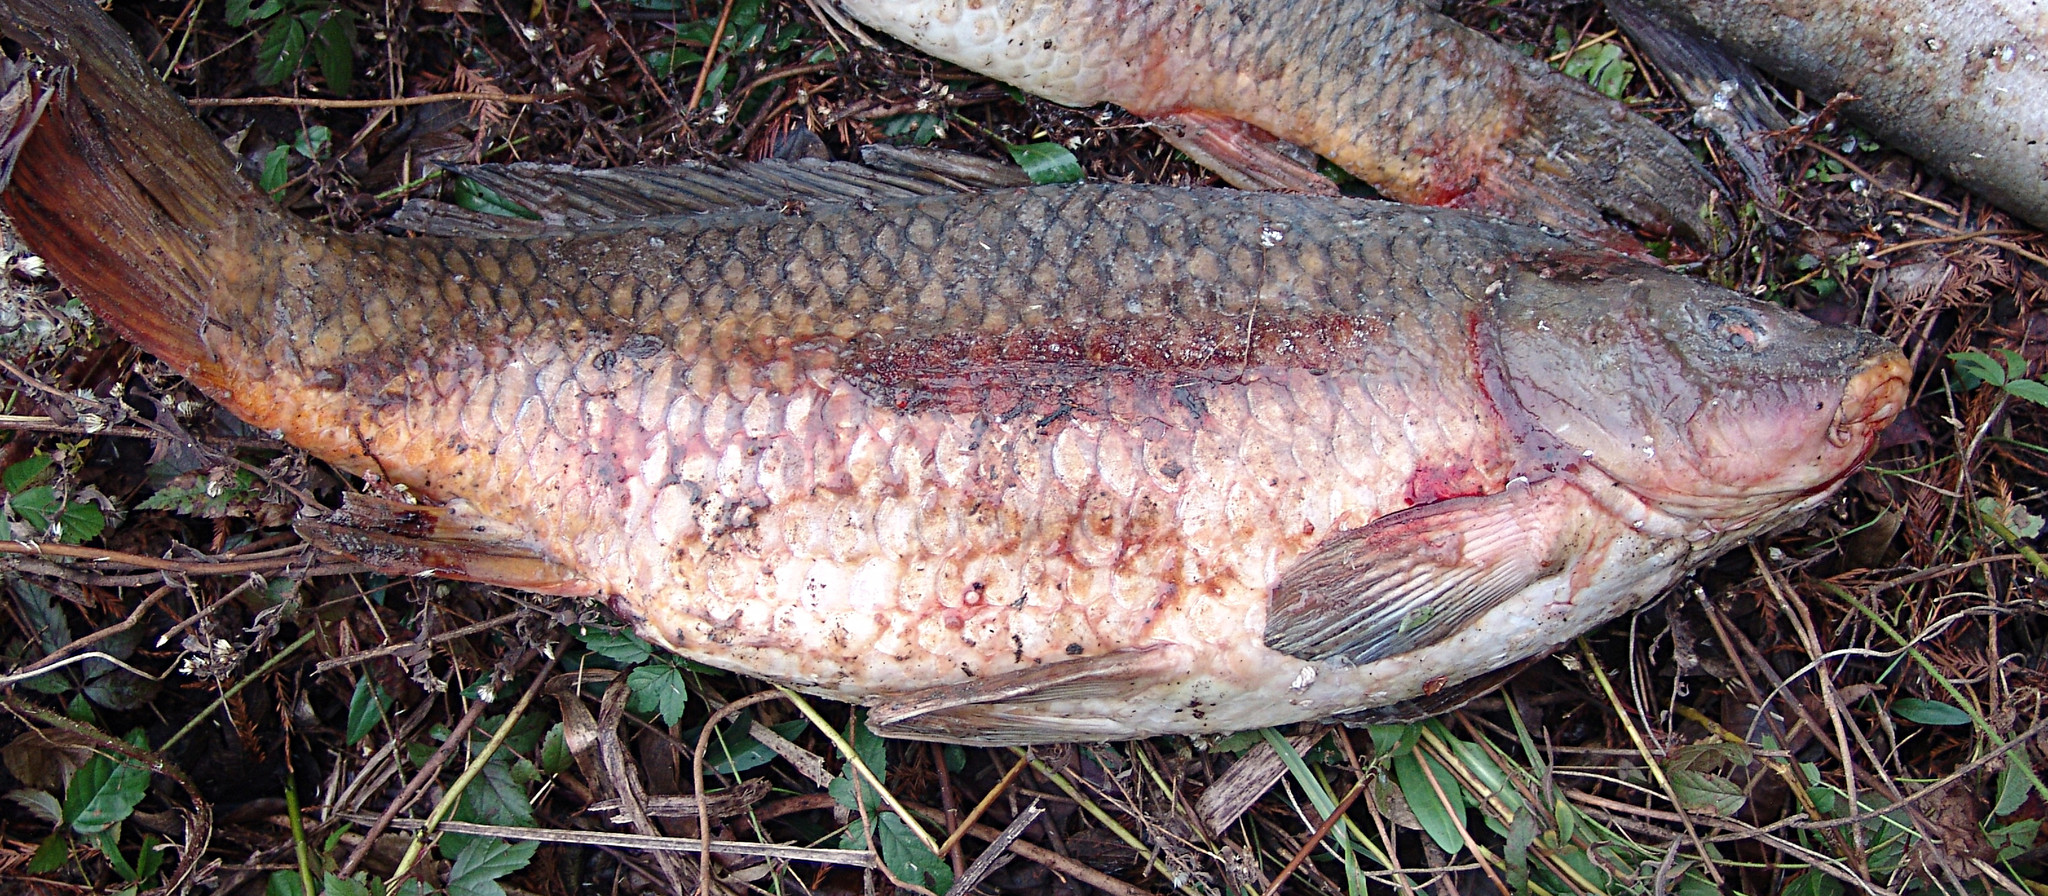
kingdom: Animalia
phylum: Chordata
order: Cypriniformes
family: Cyprinidae
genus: Cyprinus
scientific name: Cyprinus carpio
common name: Common carp
